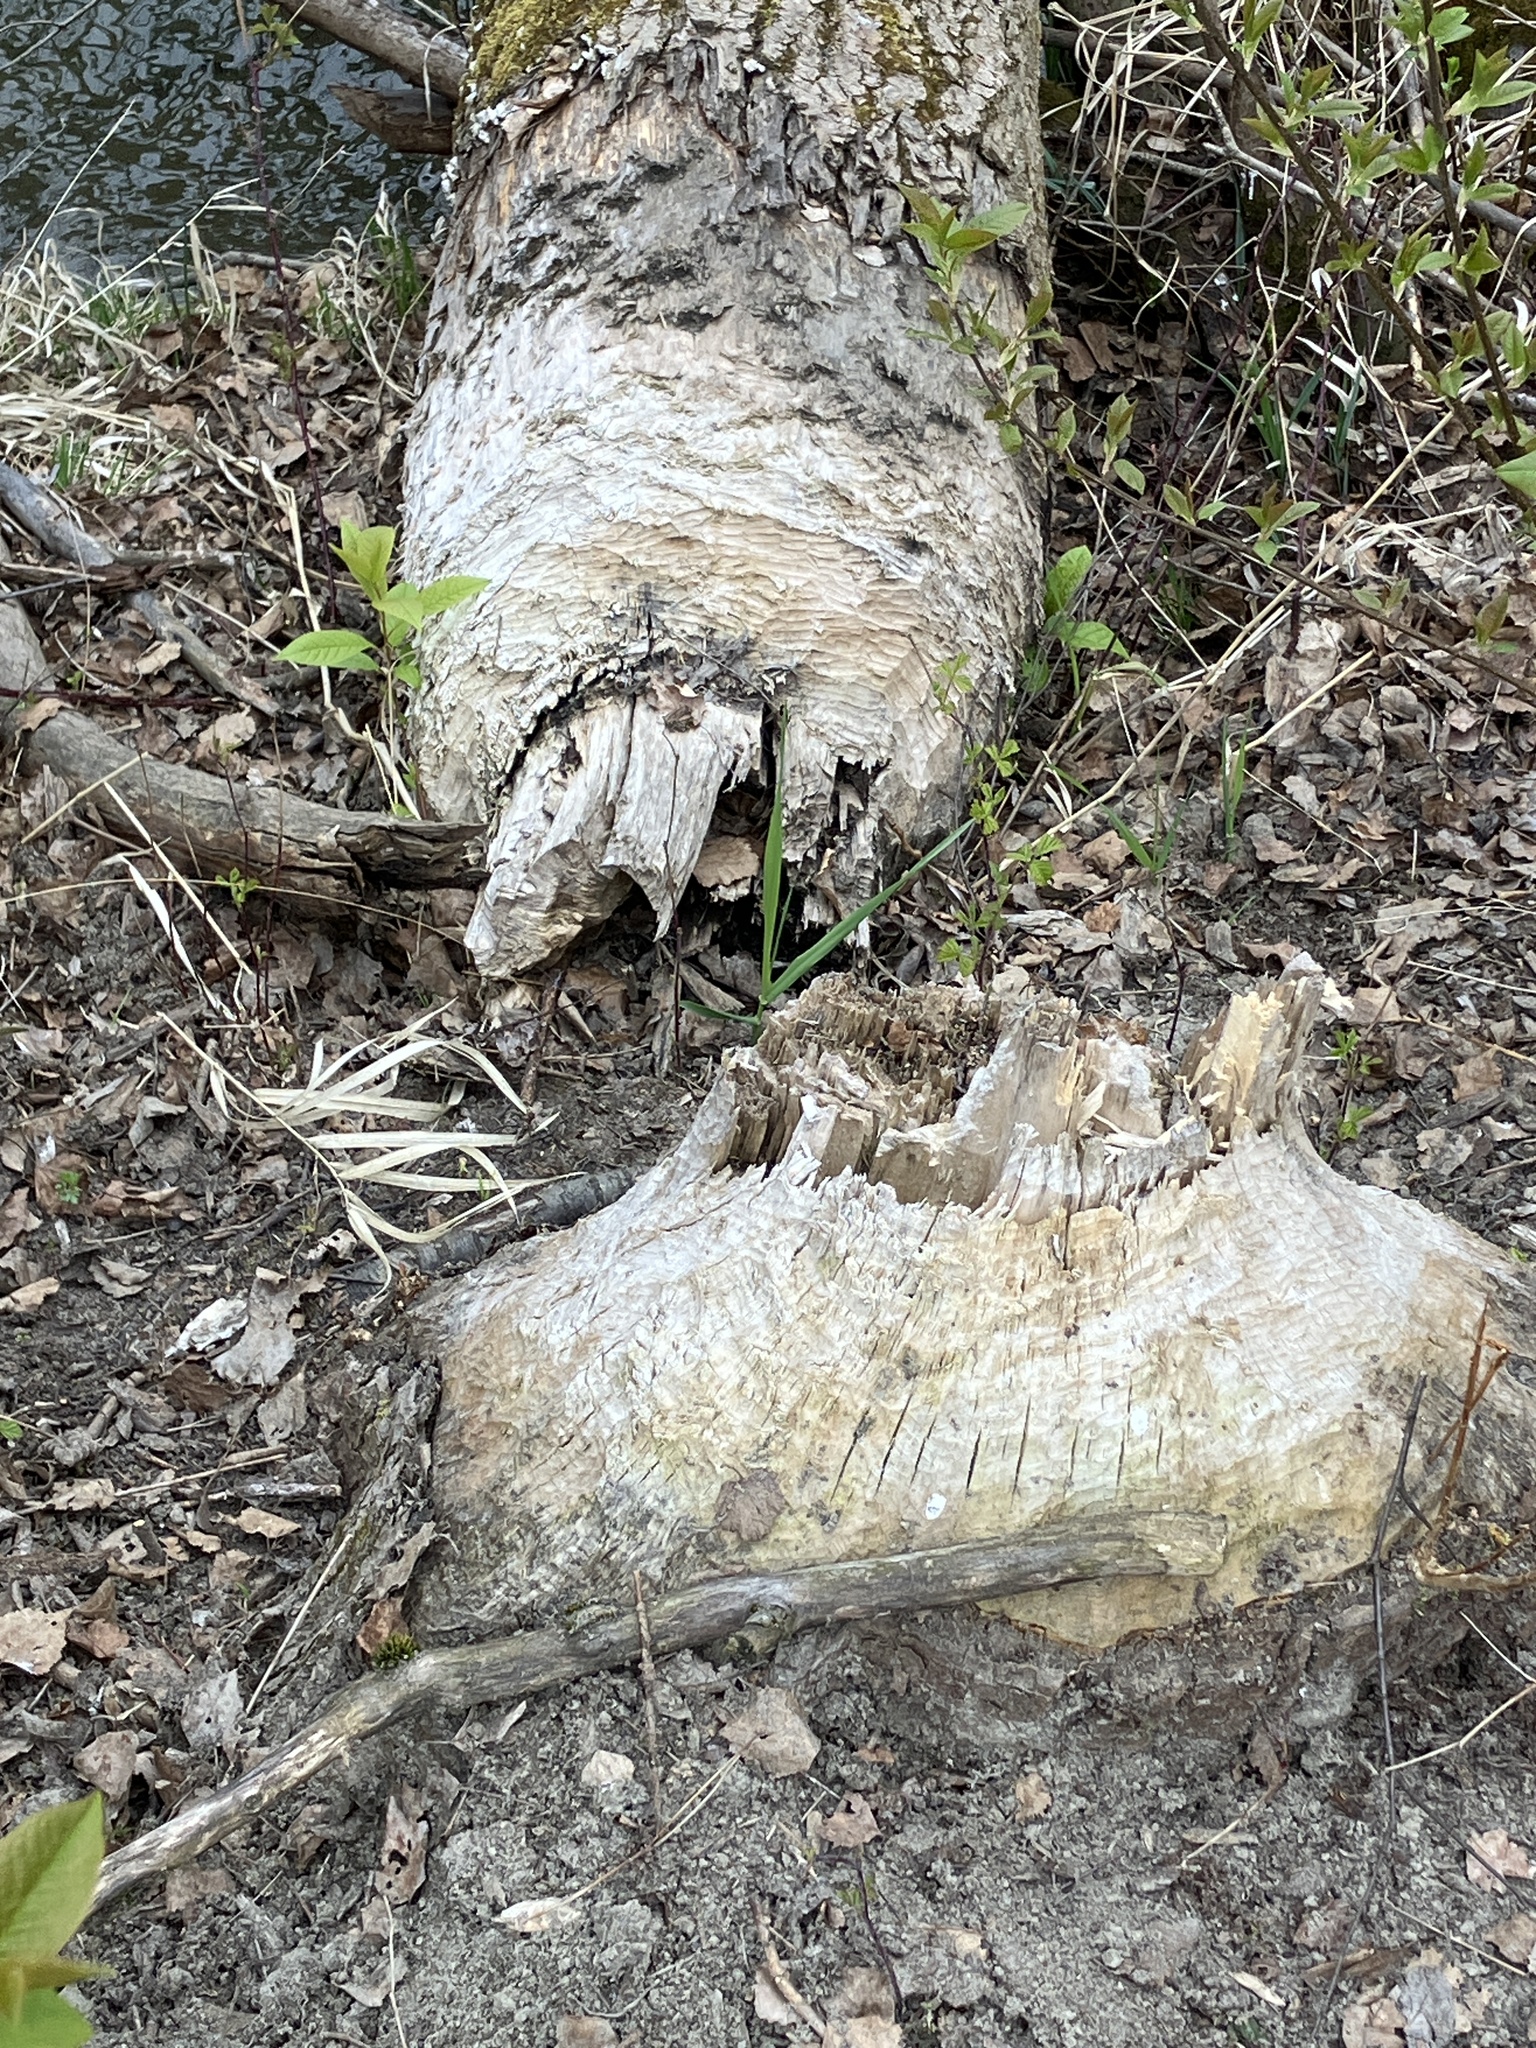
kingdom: Animalia
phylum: Chordata
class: Mammalia
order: Rodentia
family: Castoridae
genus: Castor
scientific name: Castor fiber
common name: Eurasian beaver
